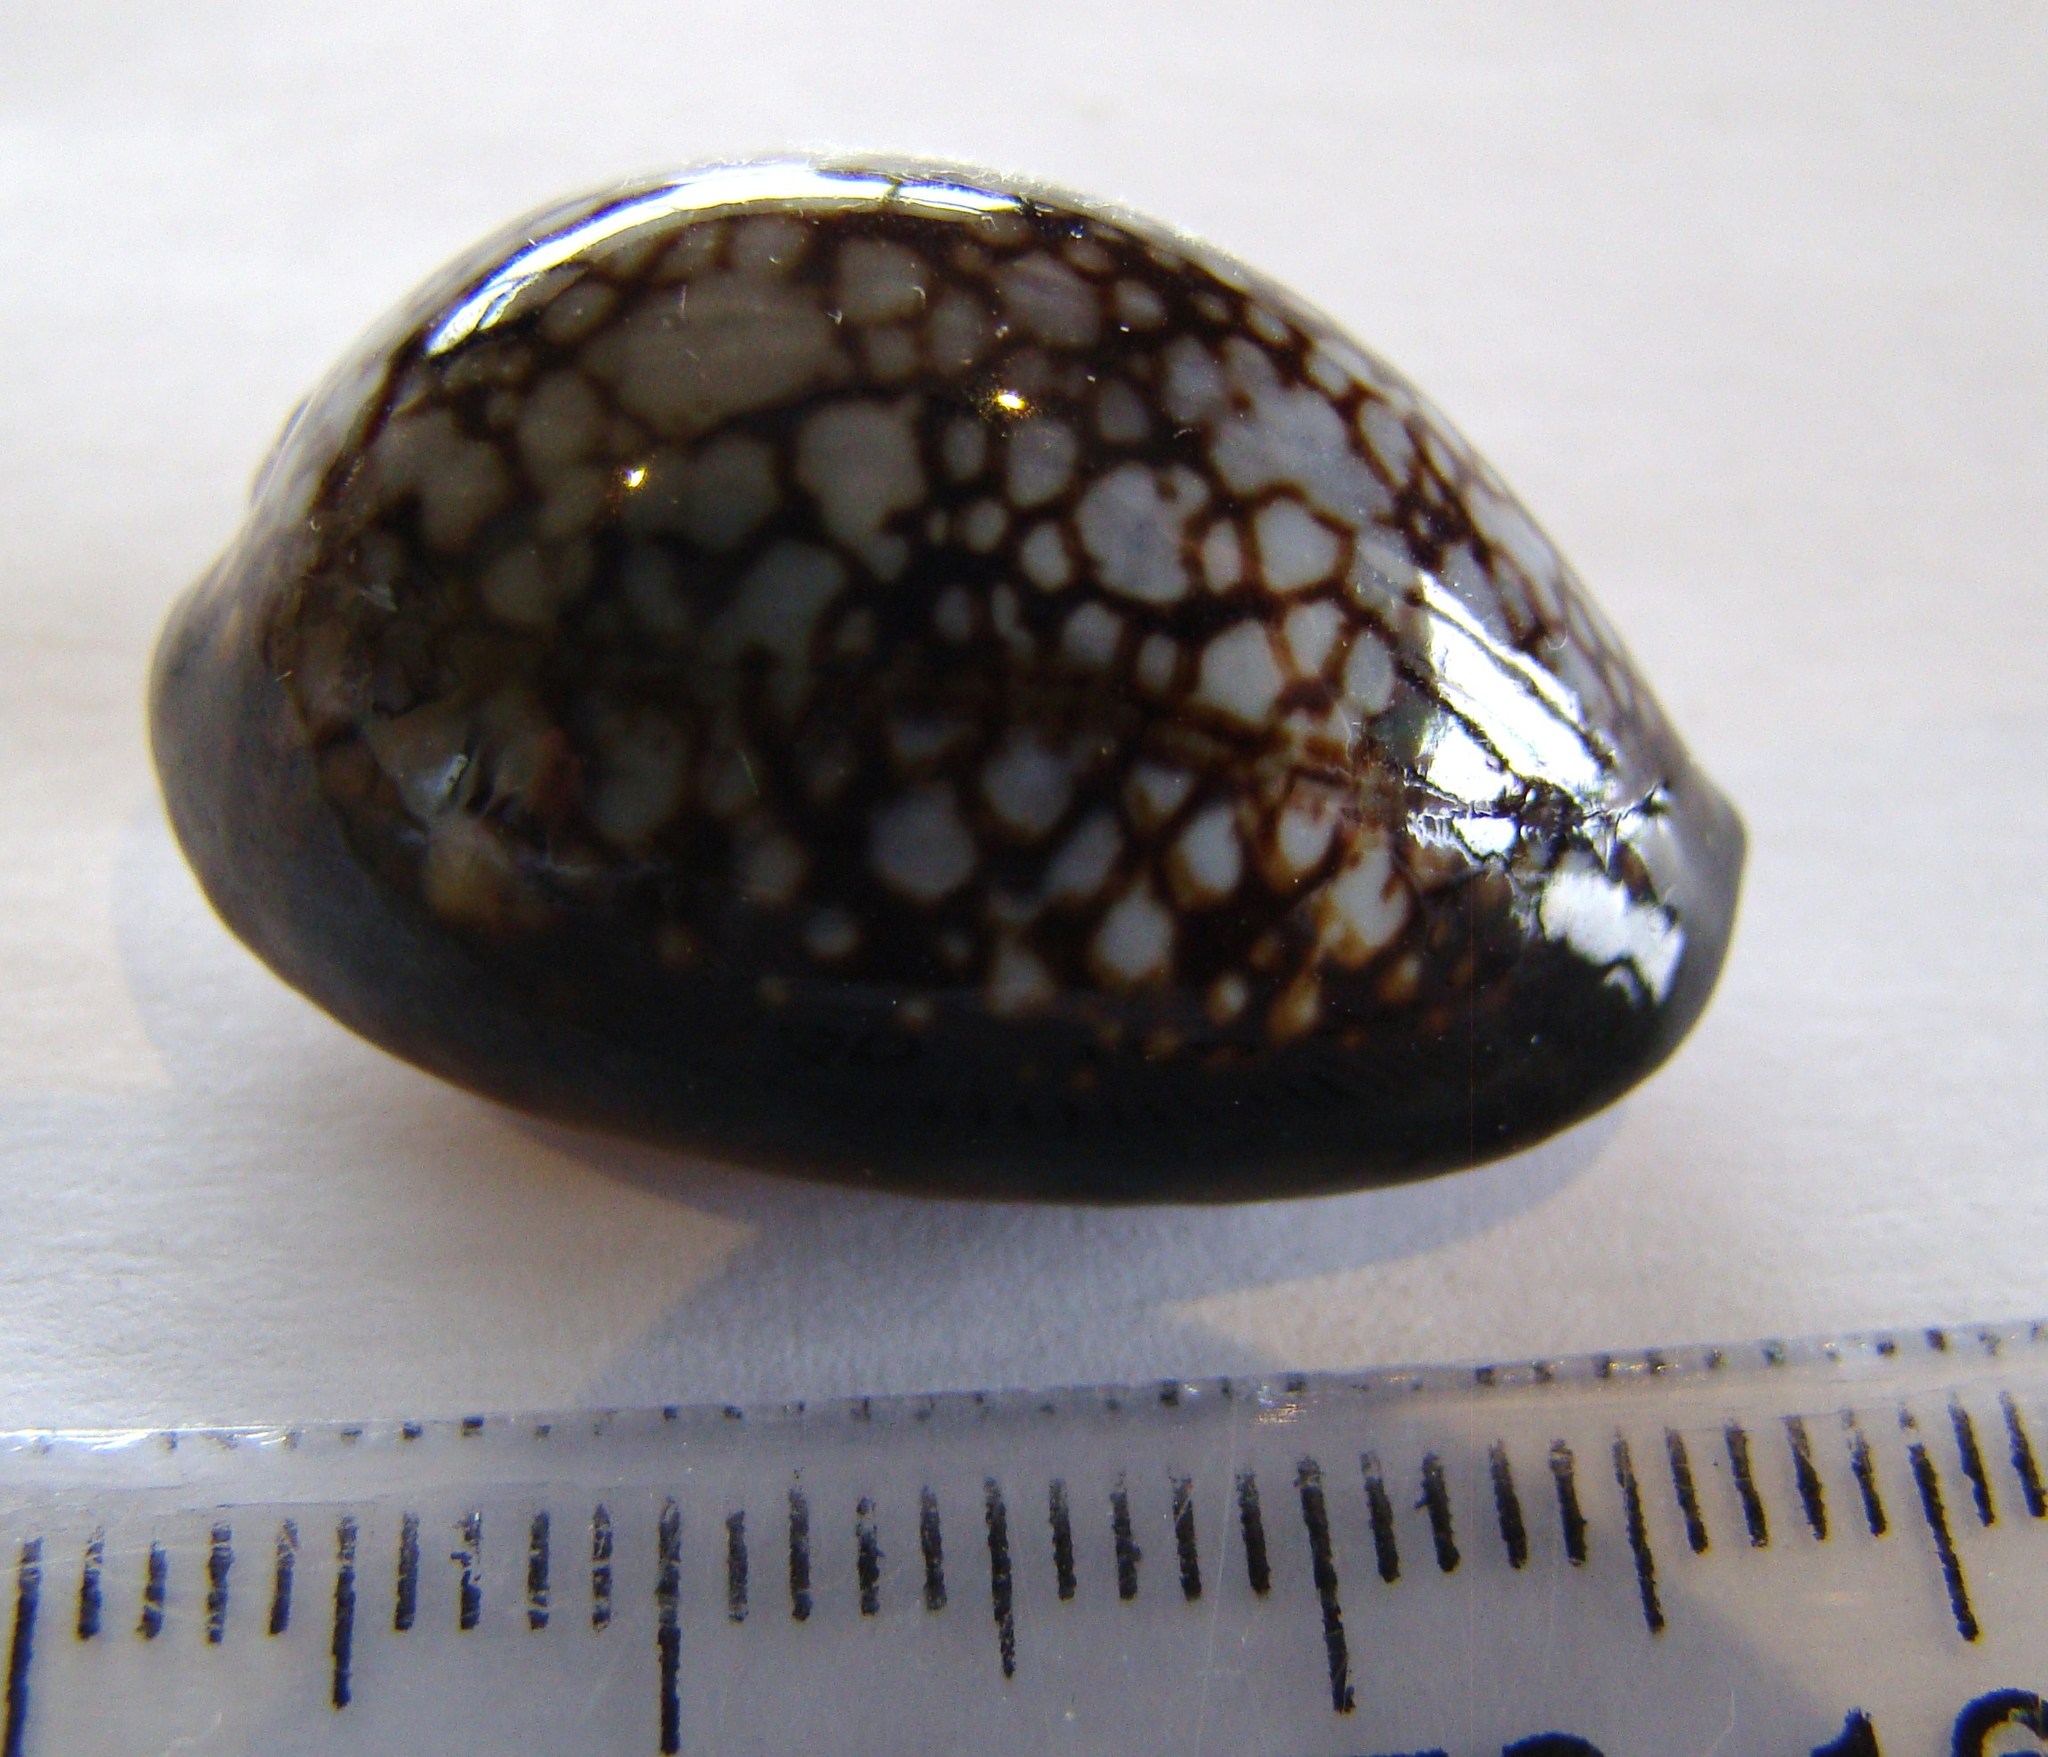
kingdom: Animalia
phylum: Mollusca
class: Gastropoda
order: Littorinimorpha
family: Cypraeidae
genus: Monetaria
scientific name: Monetaria caputserpentis
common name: Serpent's head cowrie
